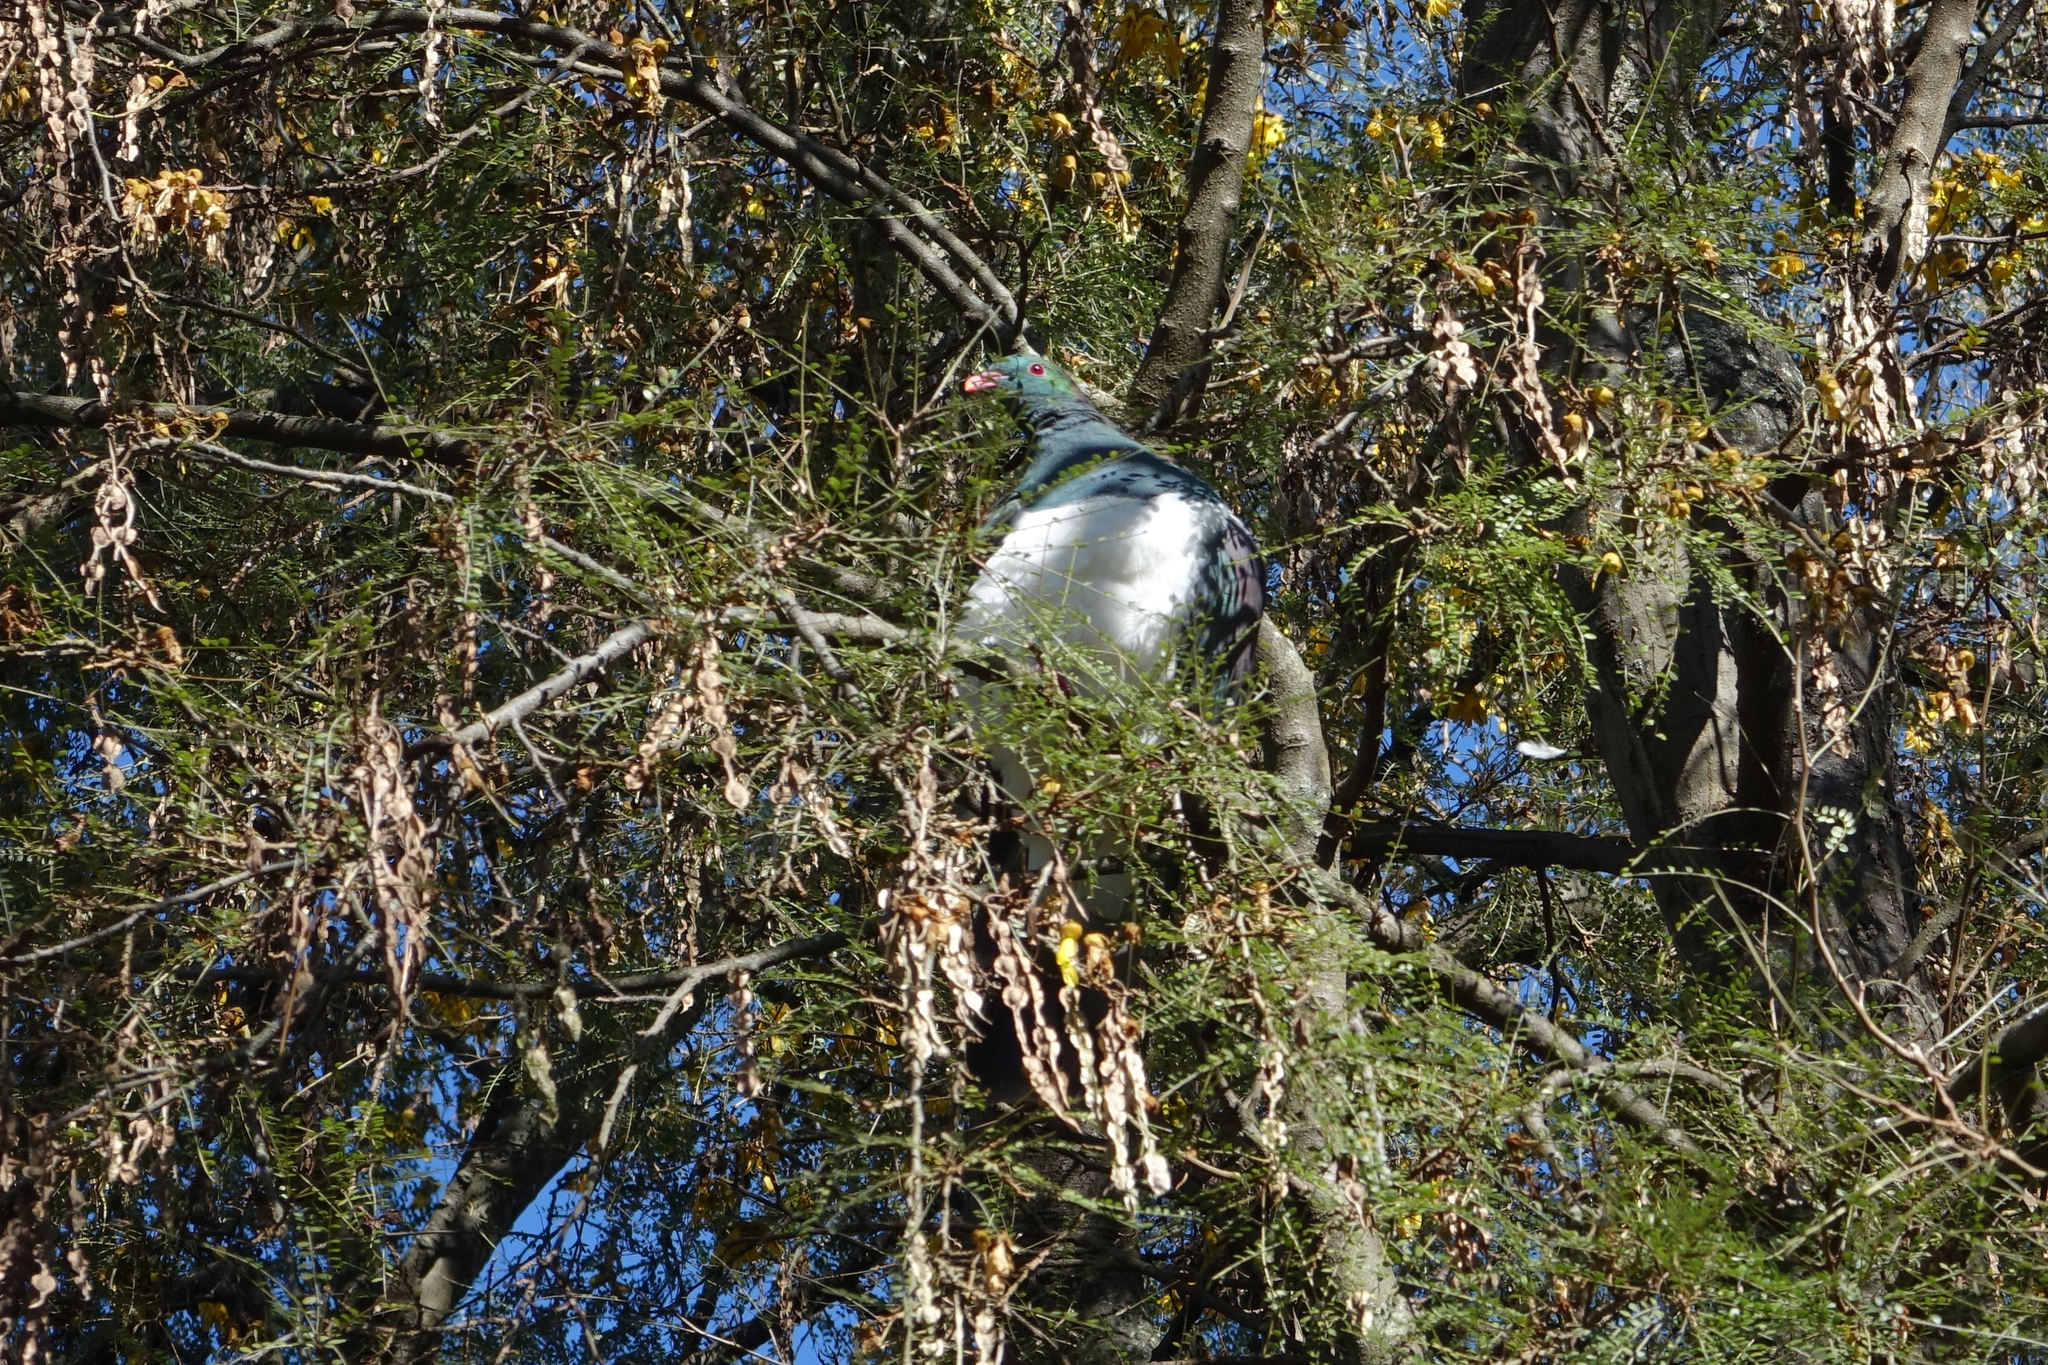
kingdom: Animalia
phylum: Chordata
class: Aves
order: Columbiformes
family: Columbidae
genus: Hemiphaga
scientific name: Hemiphaga novaeseelandiae
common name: New zealand pigeon
